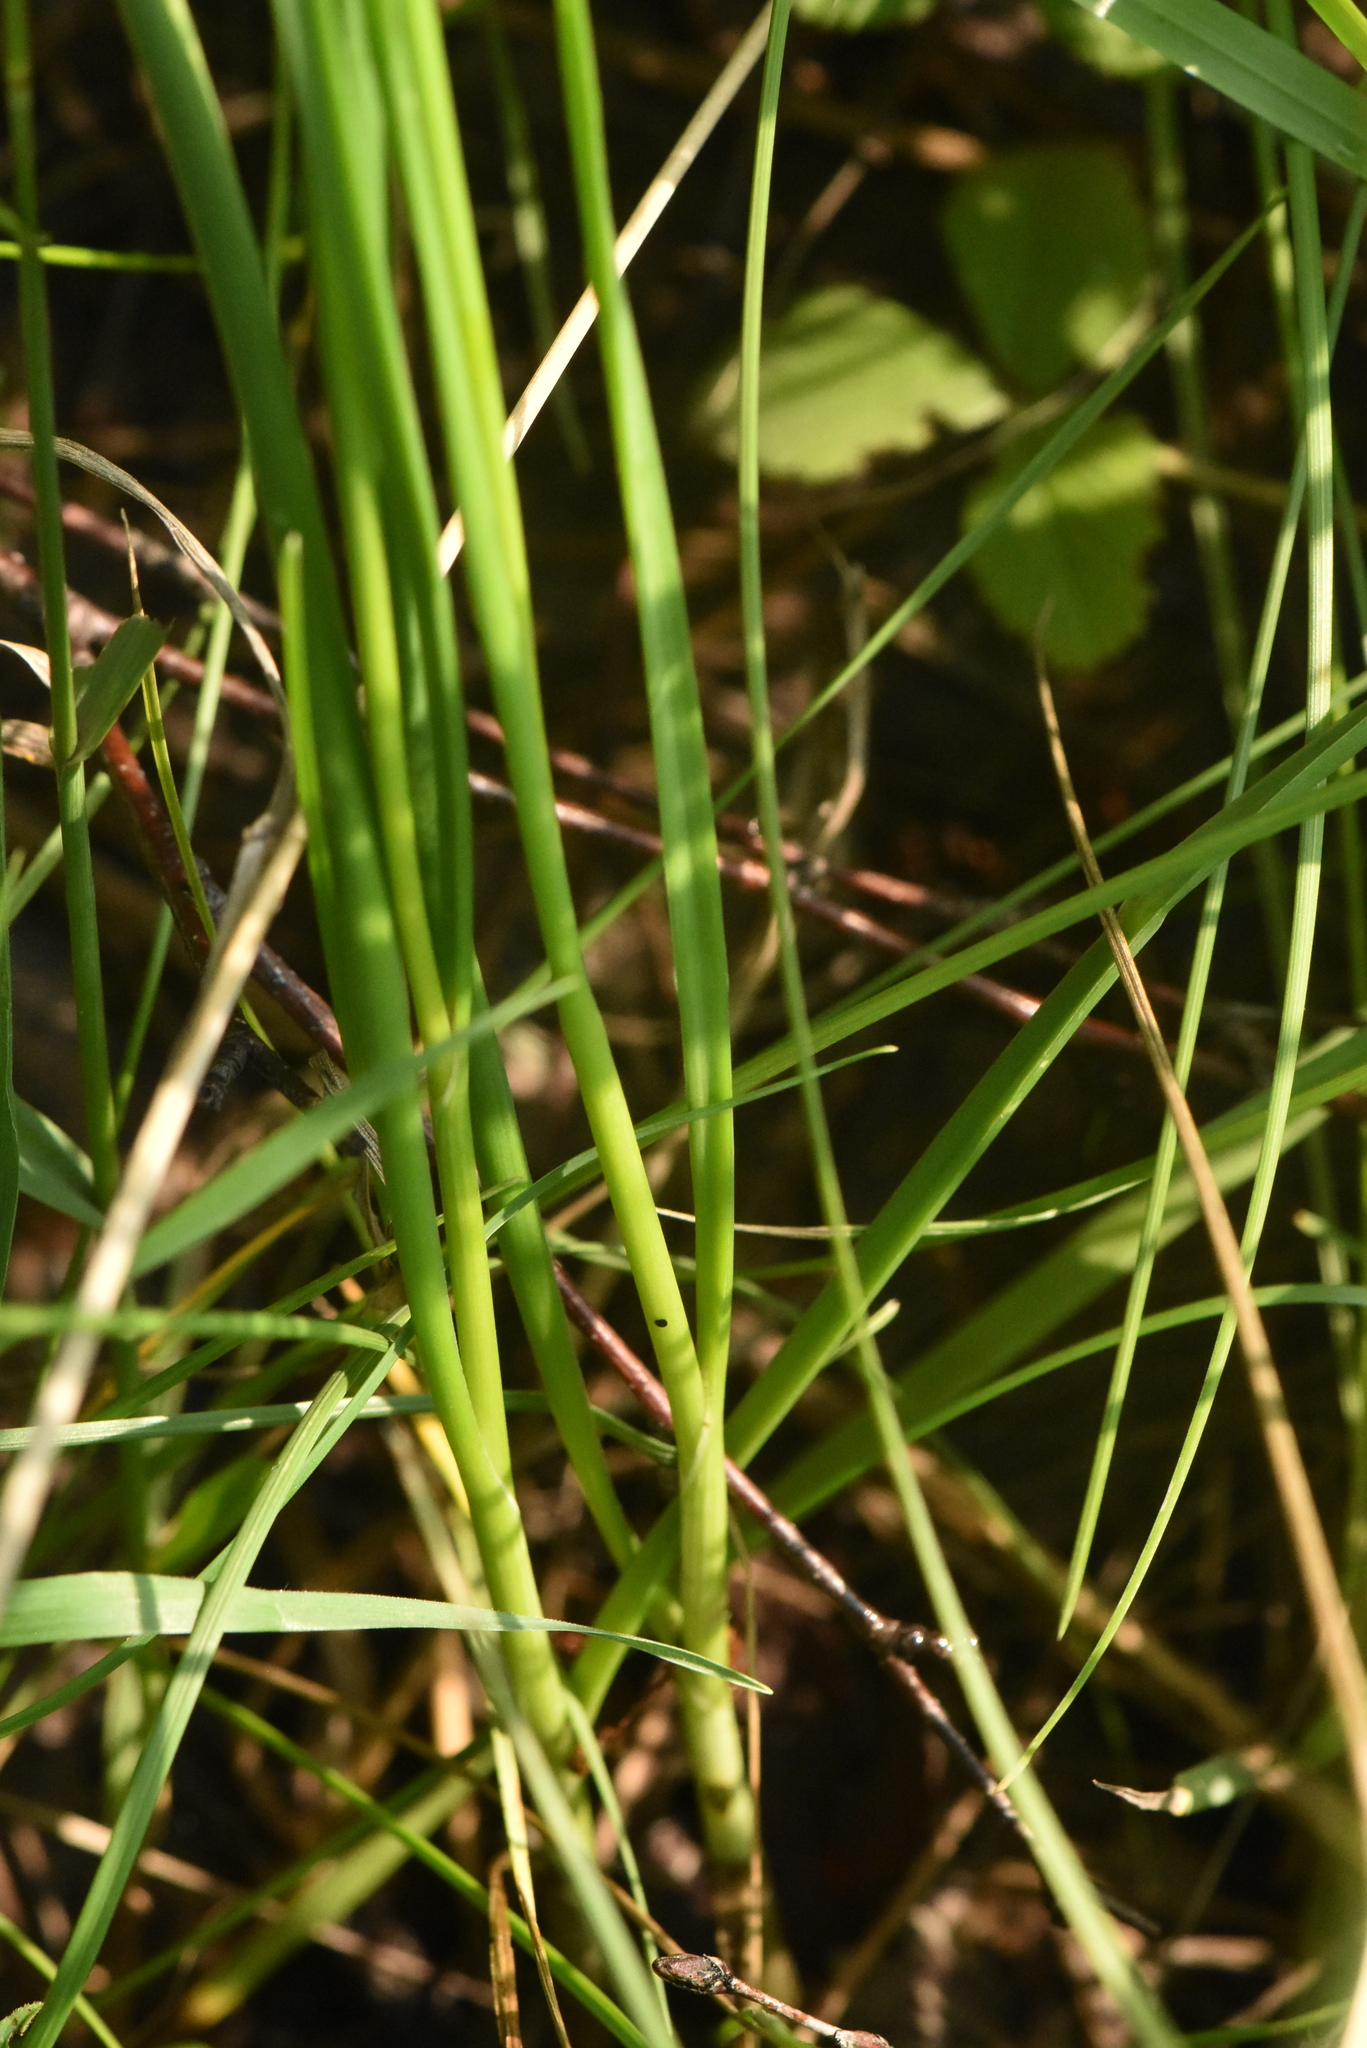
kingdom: Plantae
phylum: Tracheophyta
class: Liliopsida
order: Asparagales
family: Amaryllidaceae
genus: Allium
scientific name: Allium strictum
